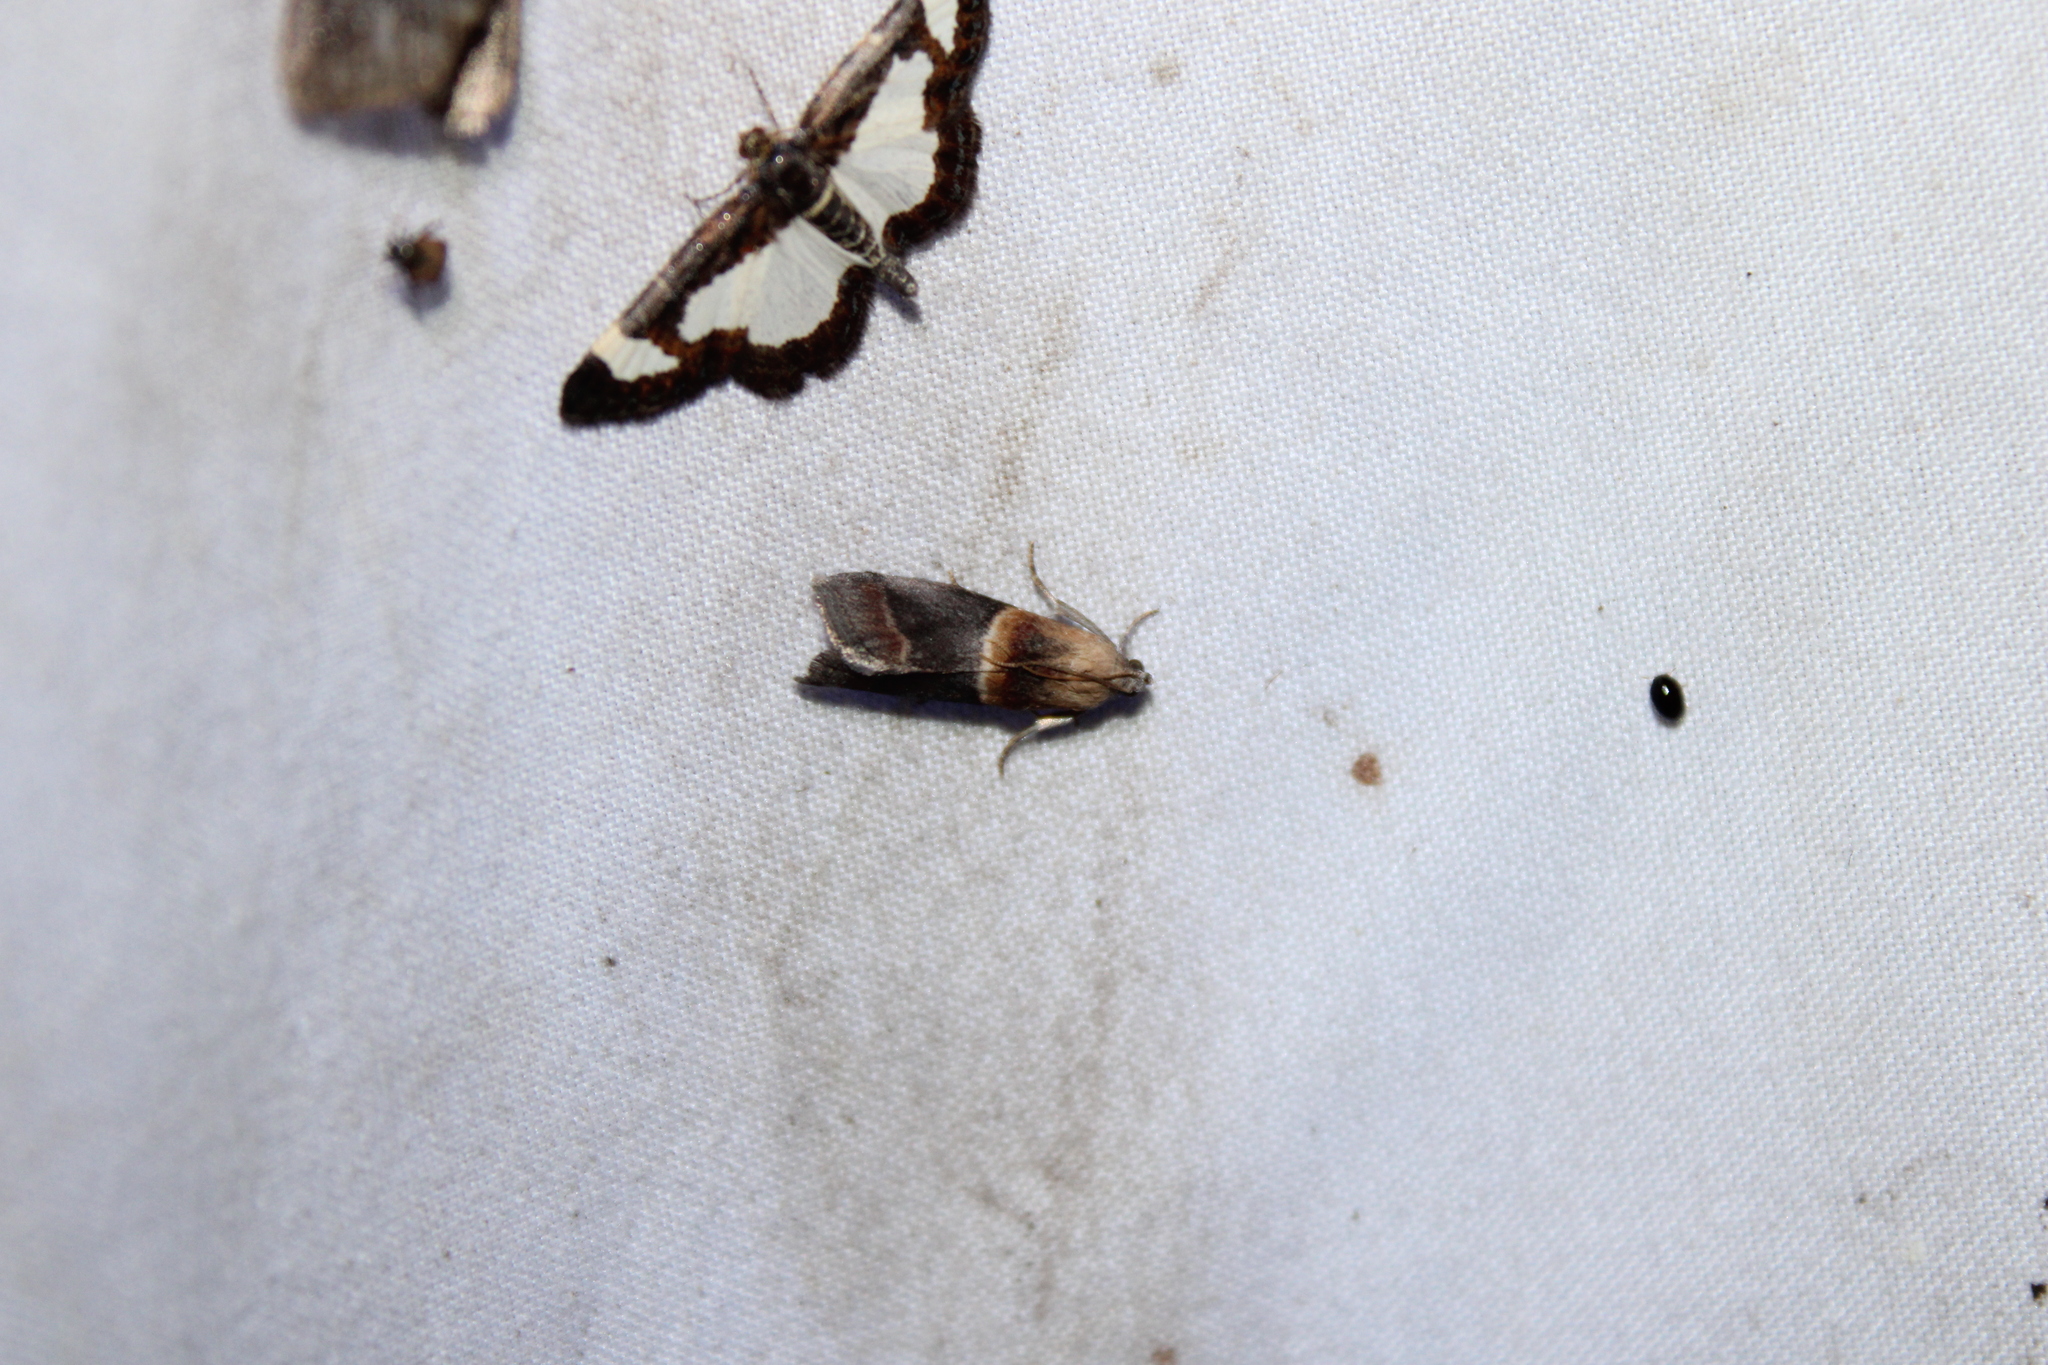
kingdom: Animalia
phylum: Arthropoda
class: Insecta
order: Lepidoptera
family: Pyralidae
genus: Acrobasis
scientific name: Acrobasis demotella
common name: Walnut shoot moth
